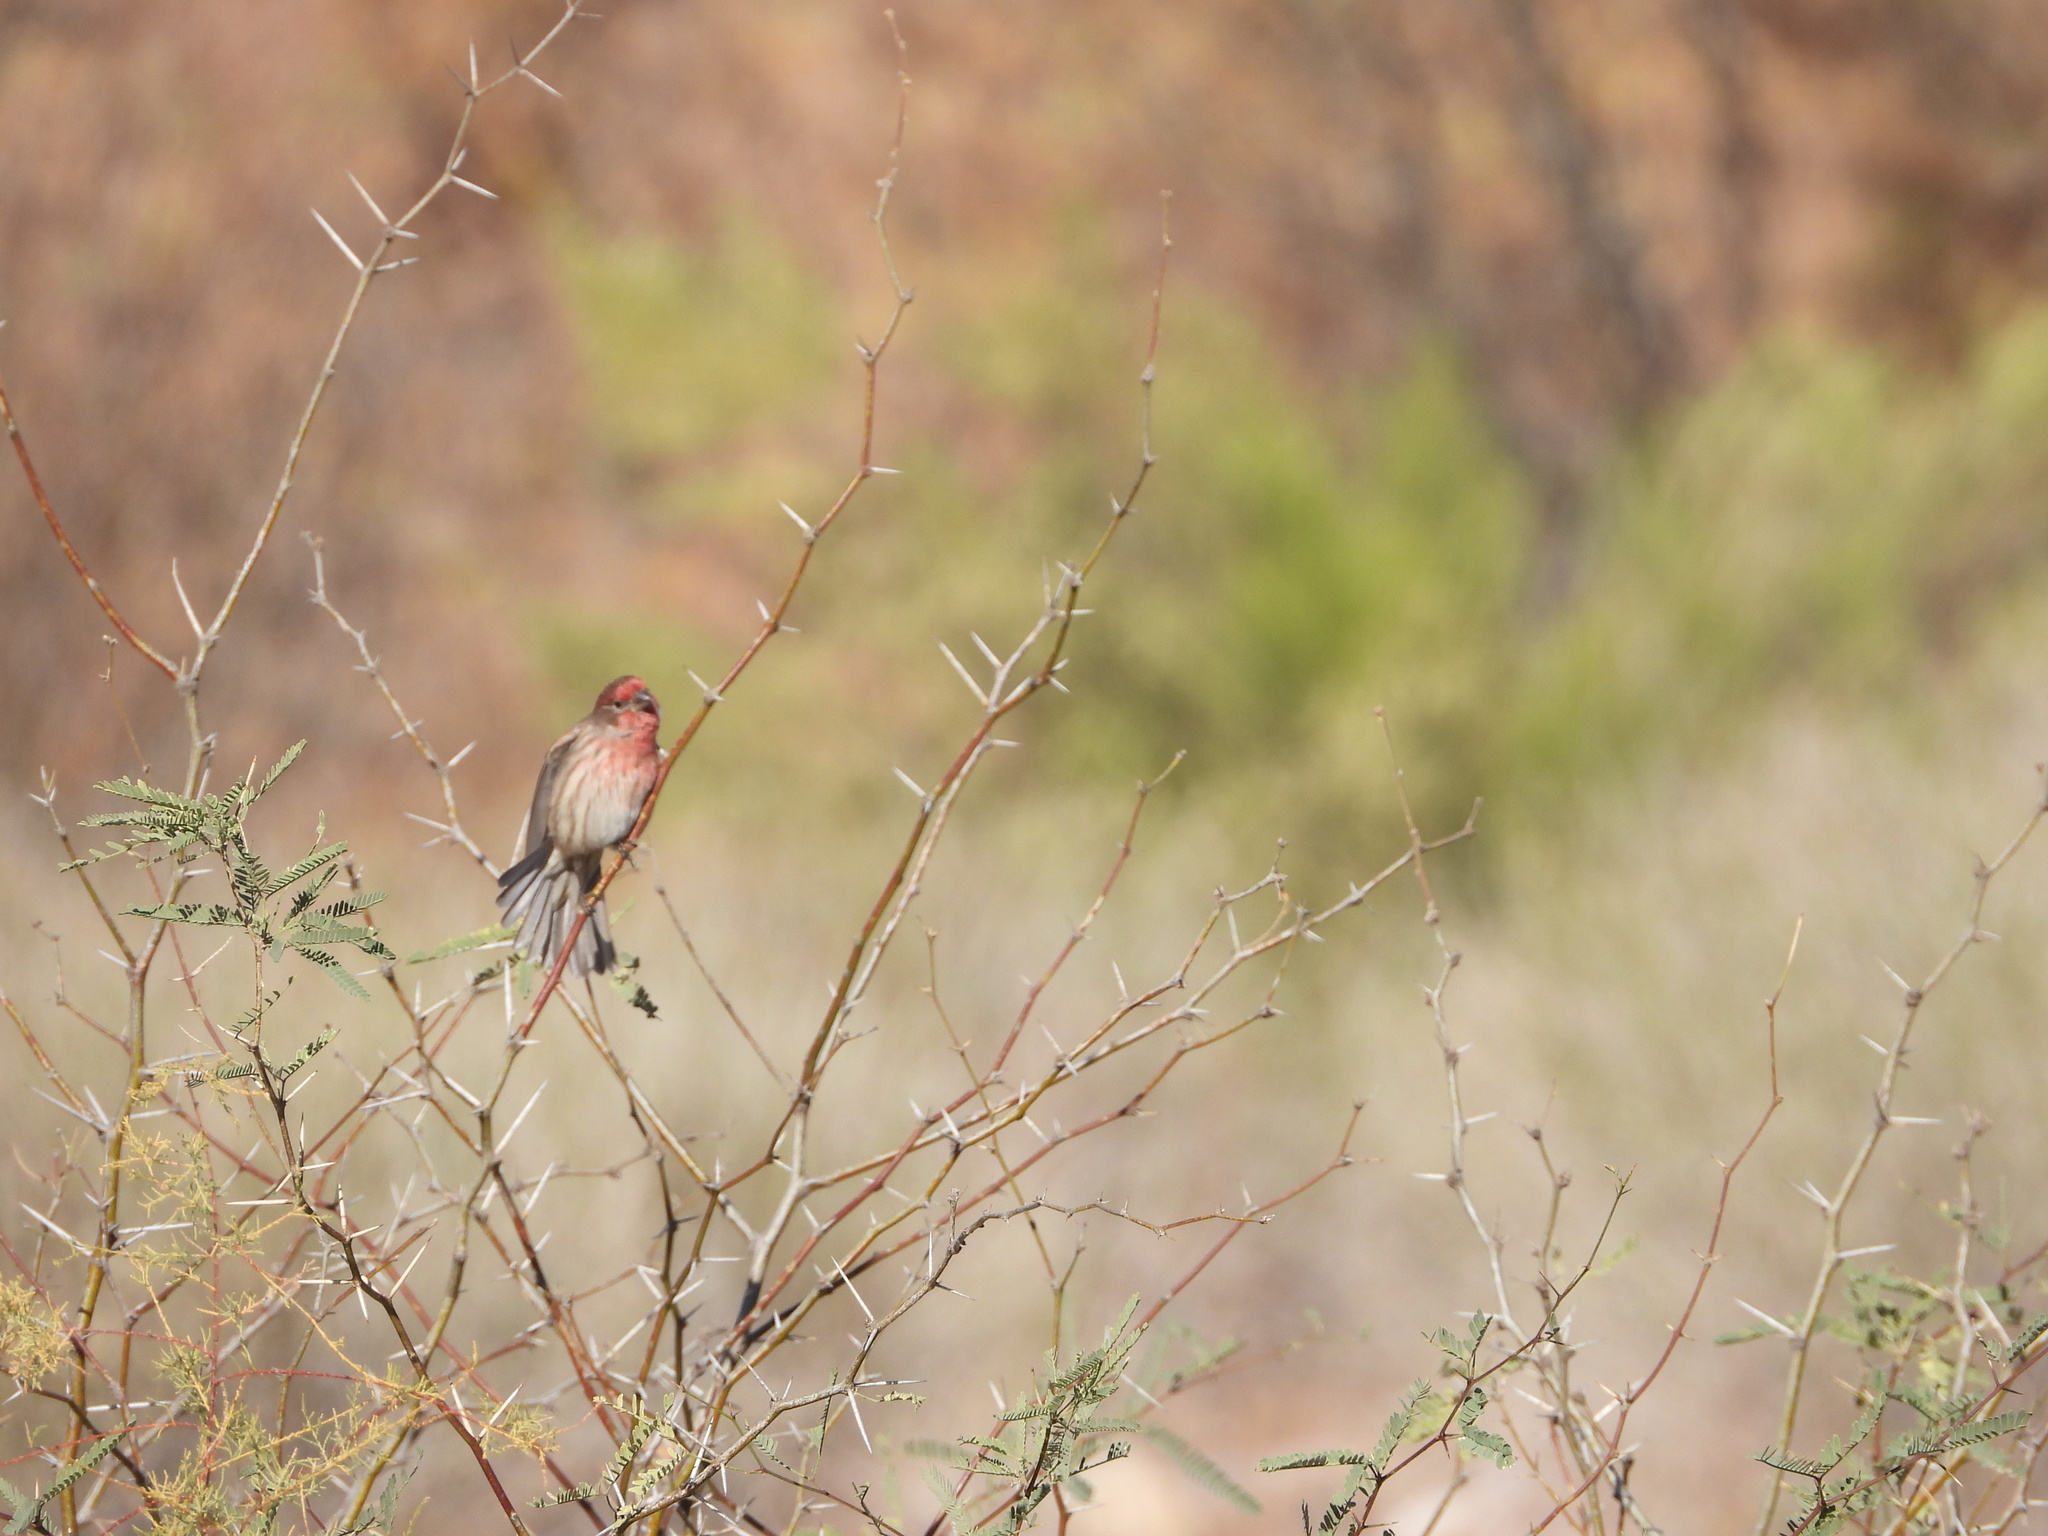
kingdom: Animalia
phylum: Chordata
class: Aves
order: Passeriformes
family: Fringillidae
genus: Haemorhous
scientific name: Haemorhous mexicanus
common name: House finch
